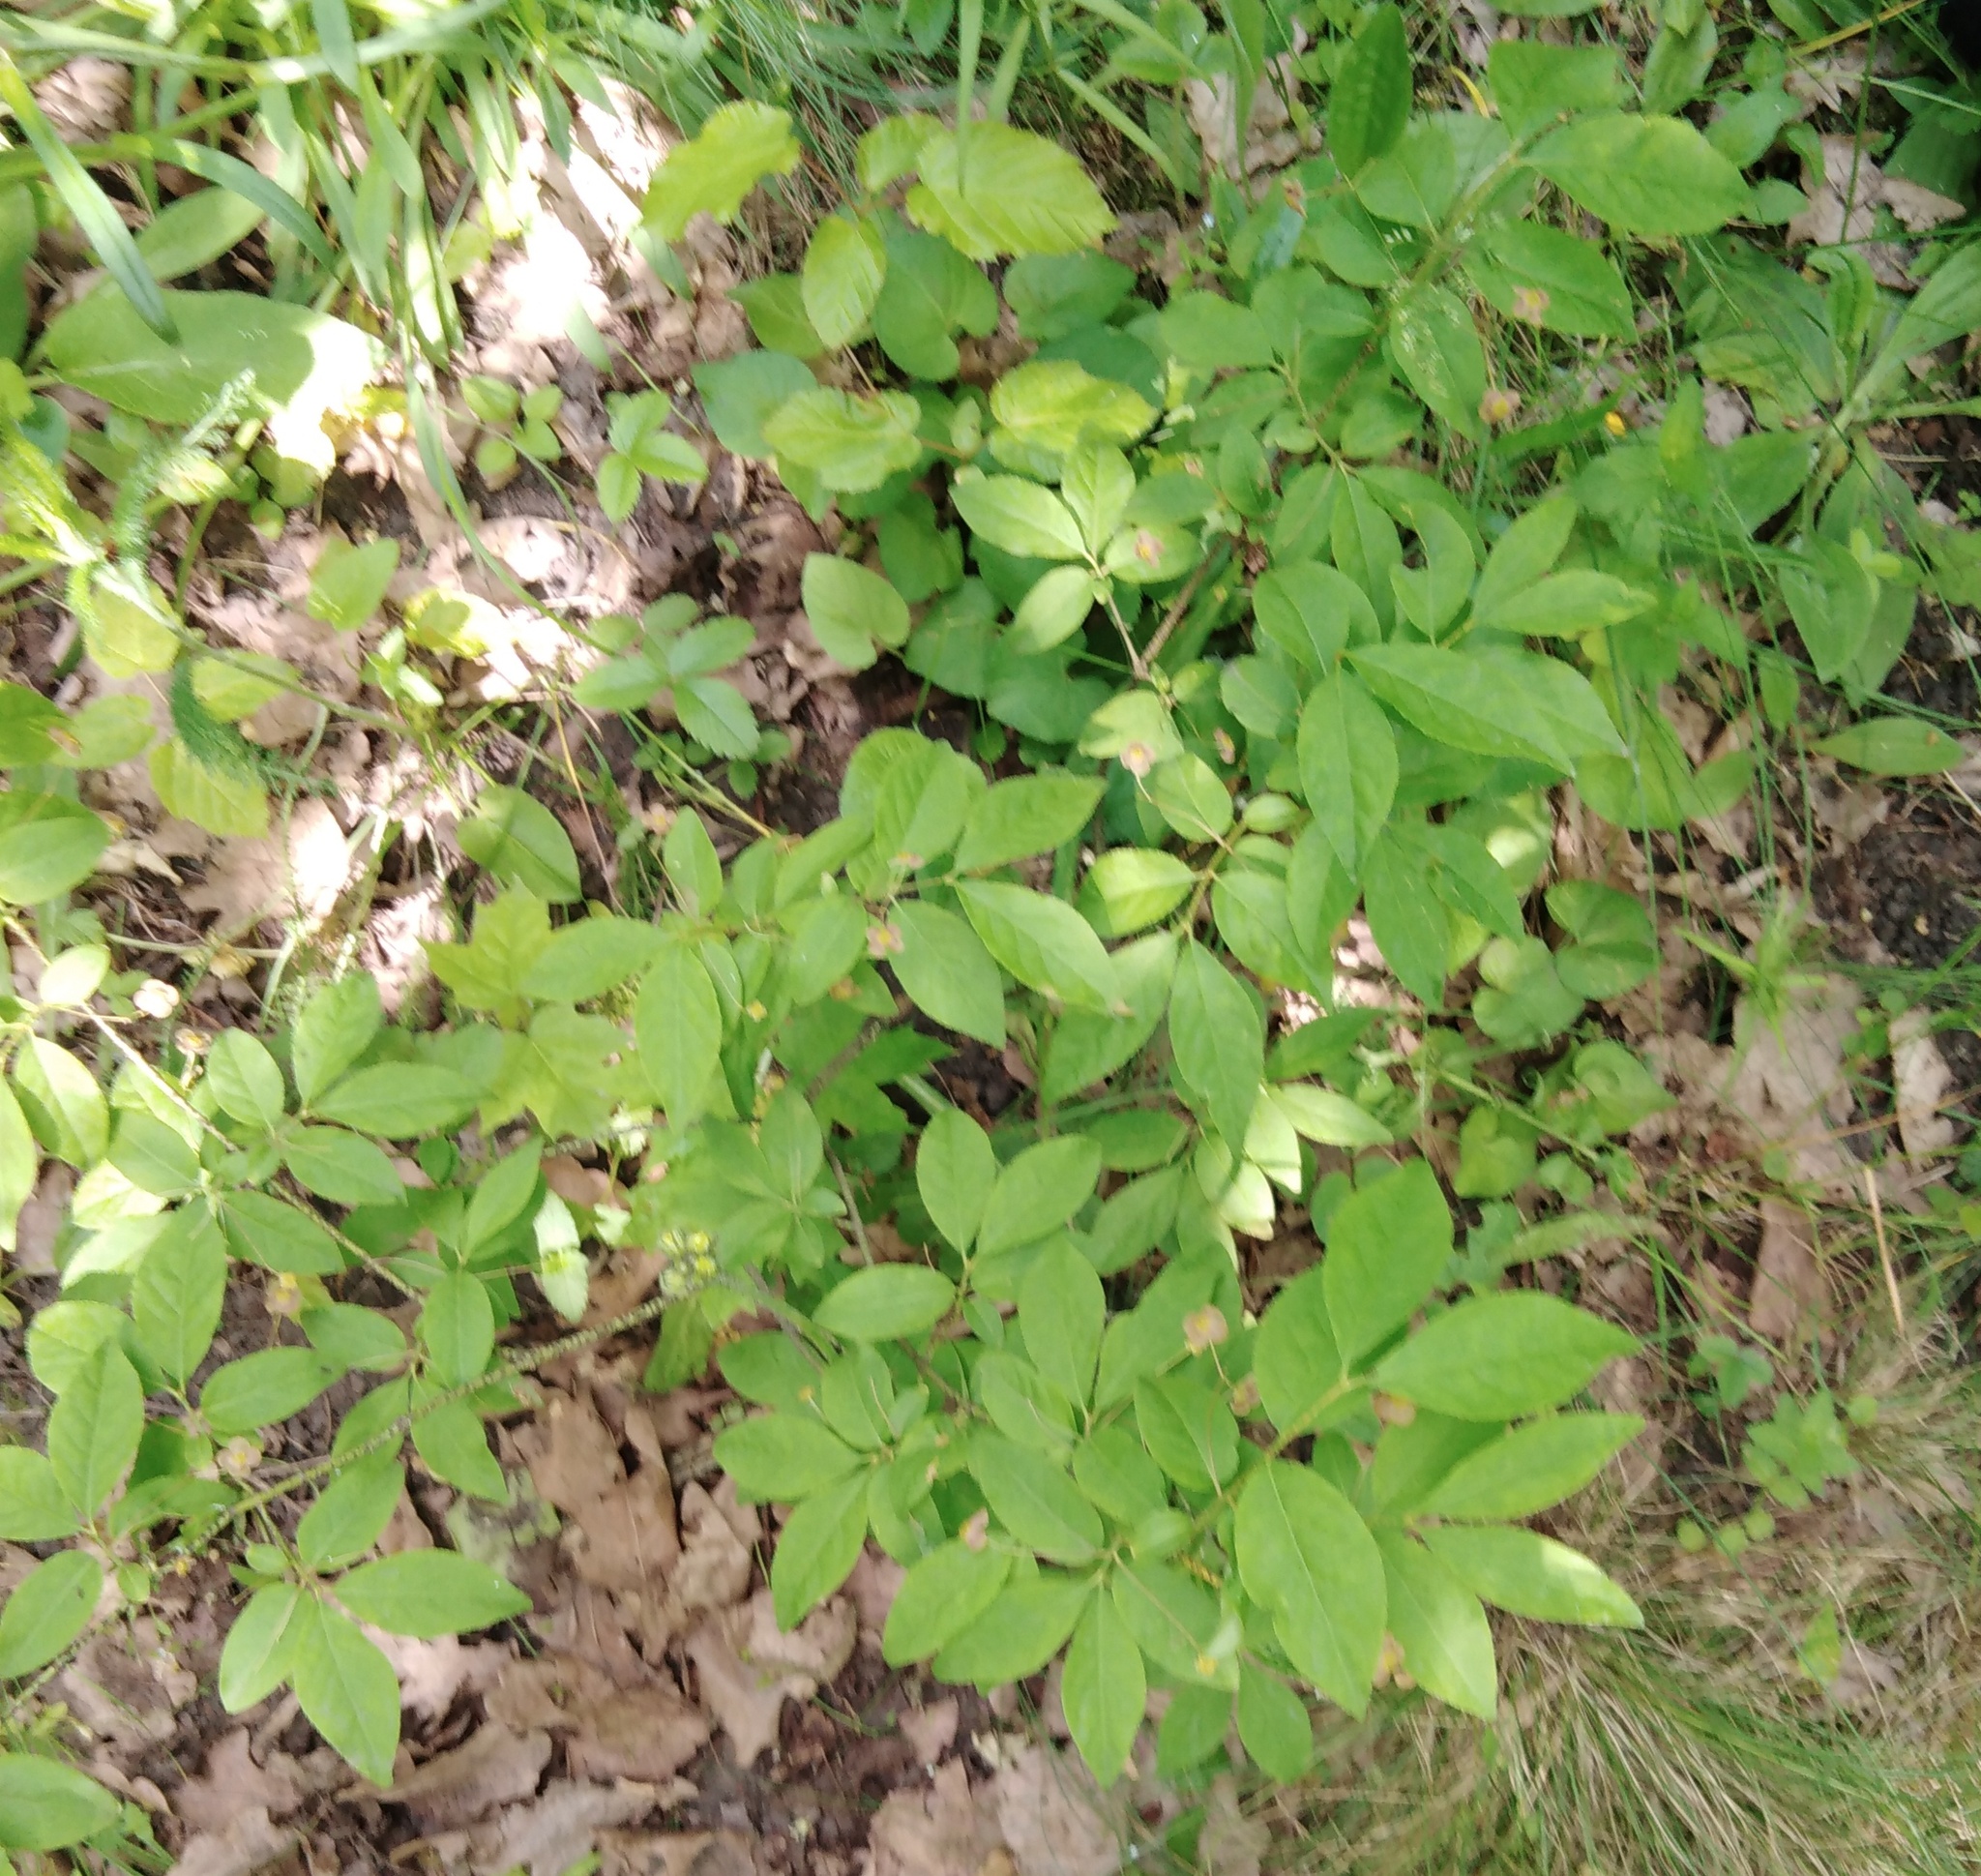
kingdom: Plantae
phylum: Tracheophyta
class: Magnoliopsida
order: Celastrales
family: Celastraceae
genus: Euonymus
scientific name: Euonymus verrucosus
